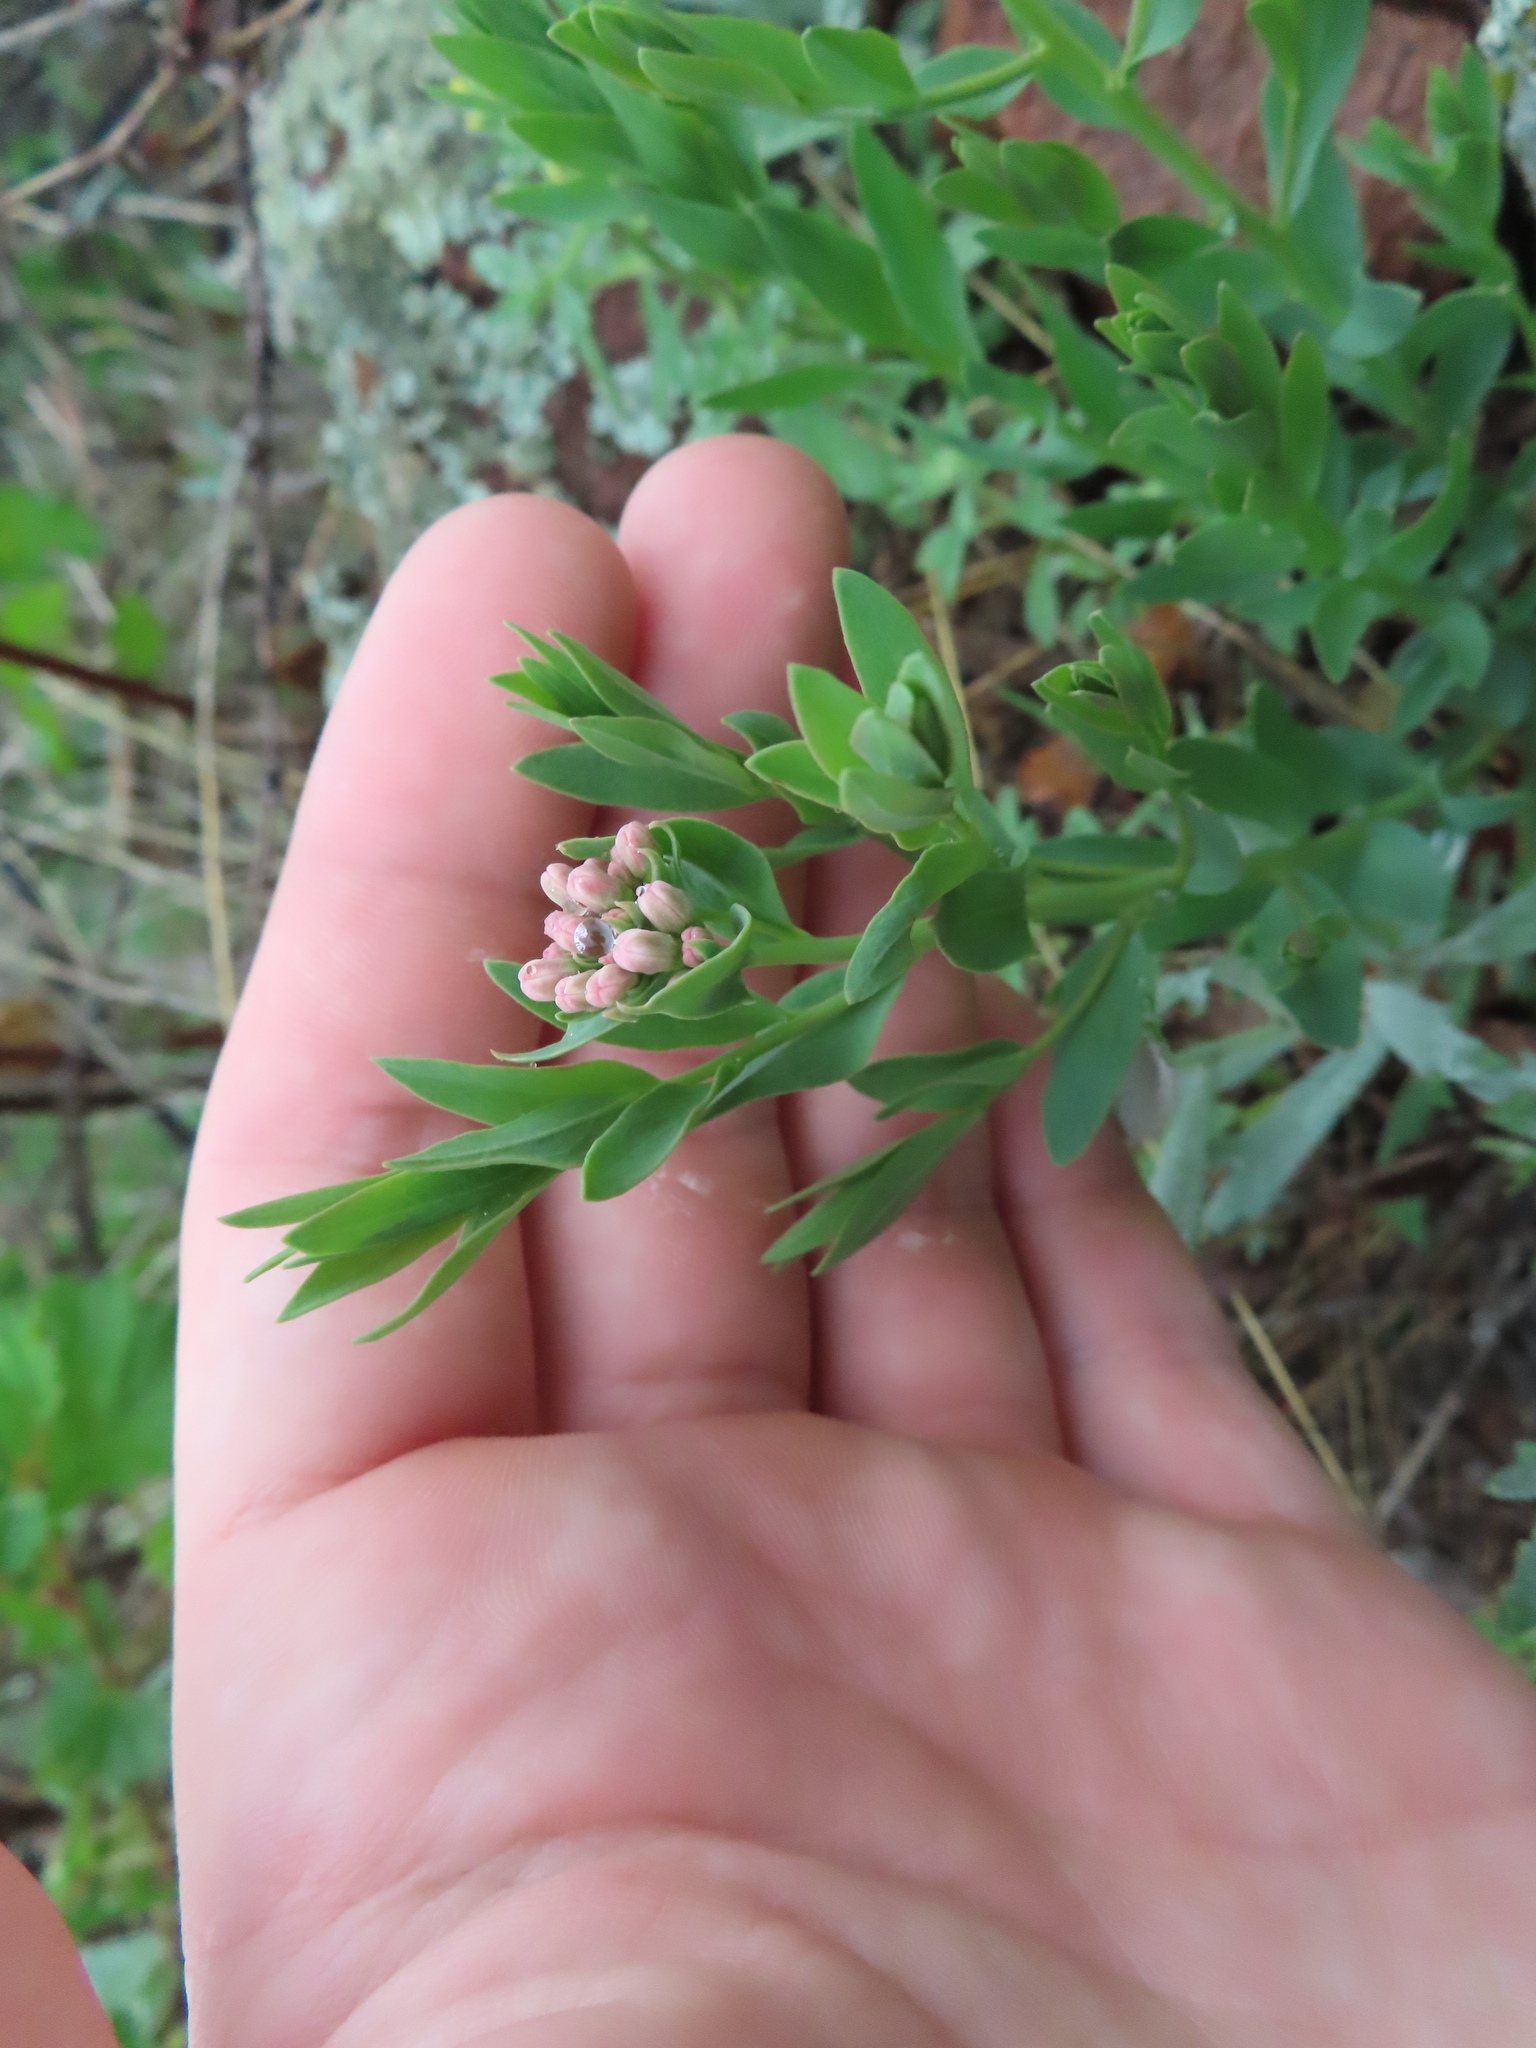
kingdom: Plantae
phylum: Tracheophyta
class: Magnoliopsida
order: Santalales
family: Comandraceae
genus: Comandra
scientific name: Comandra umbellata
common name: Bastard toadflax
